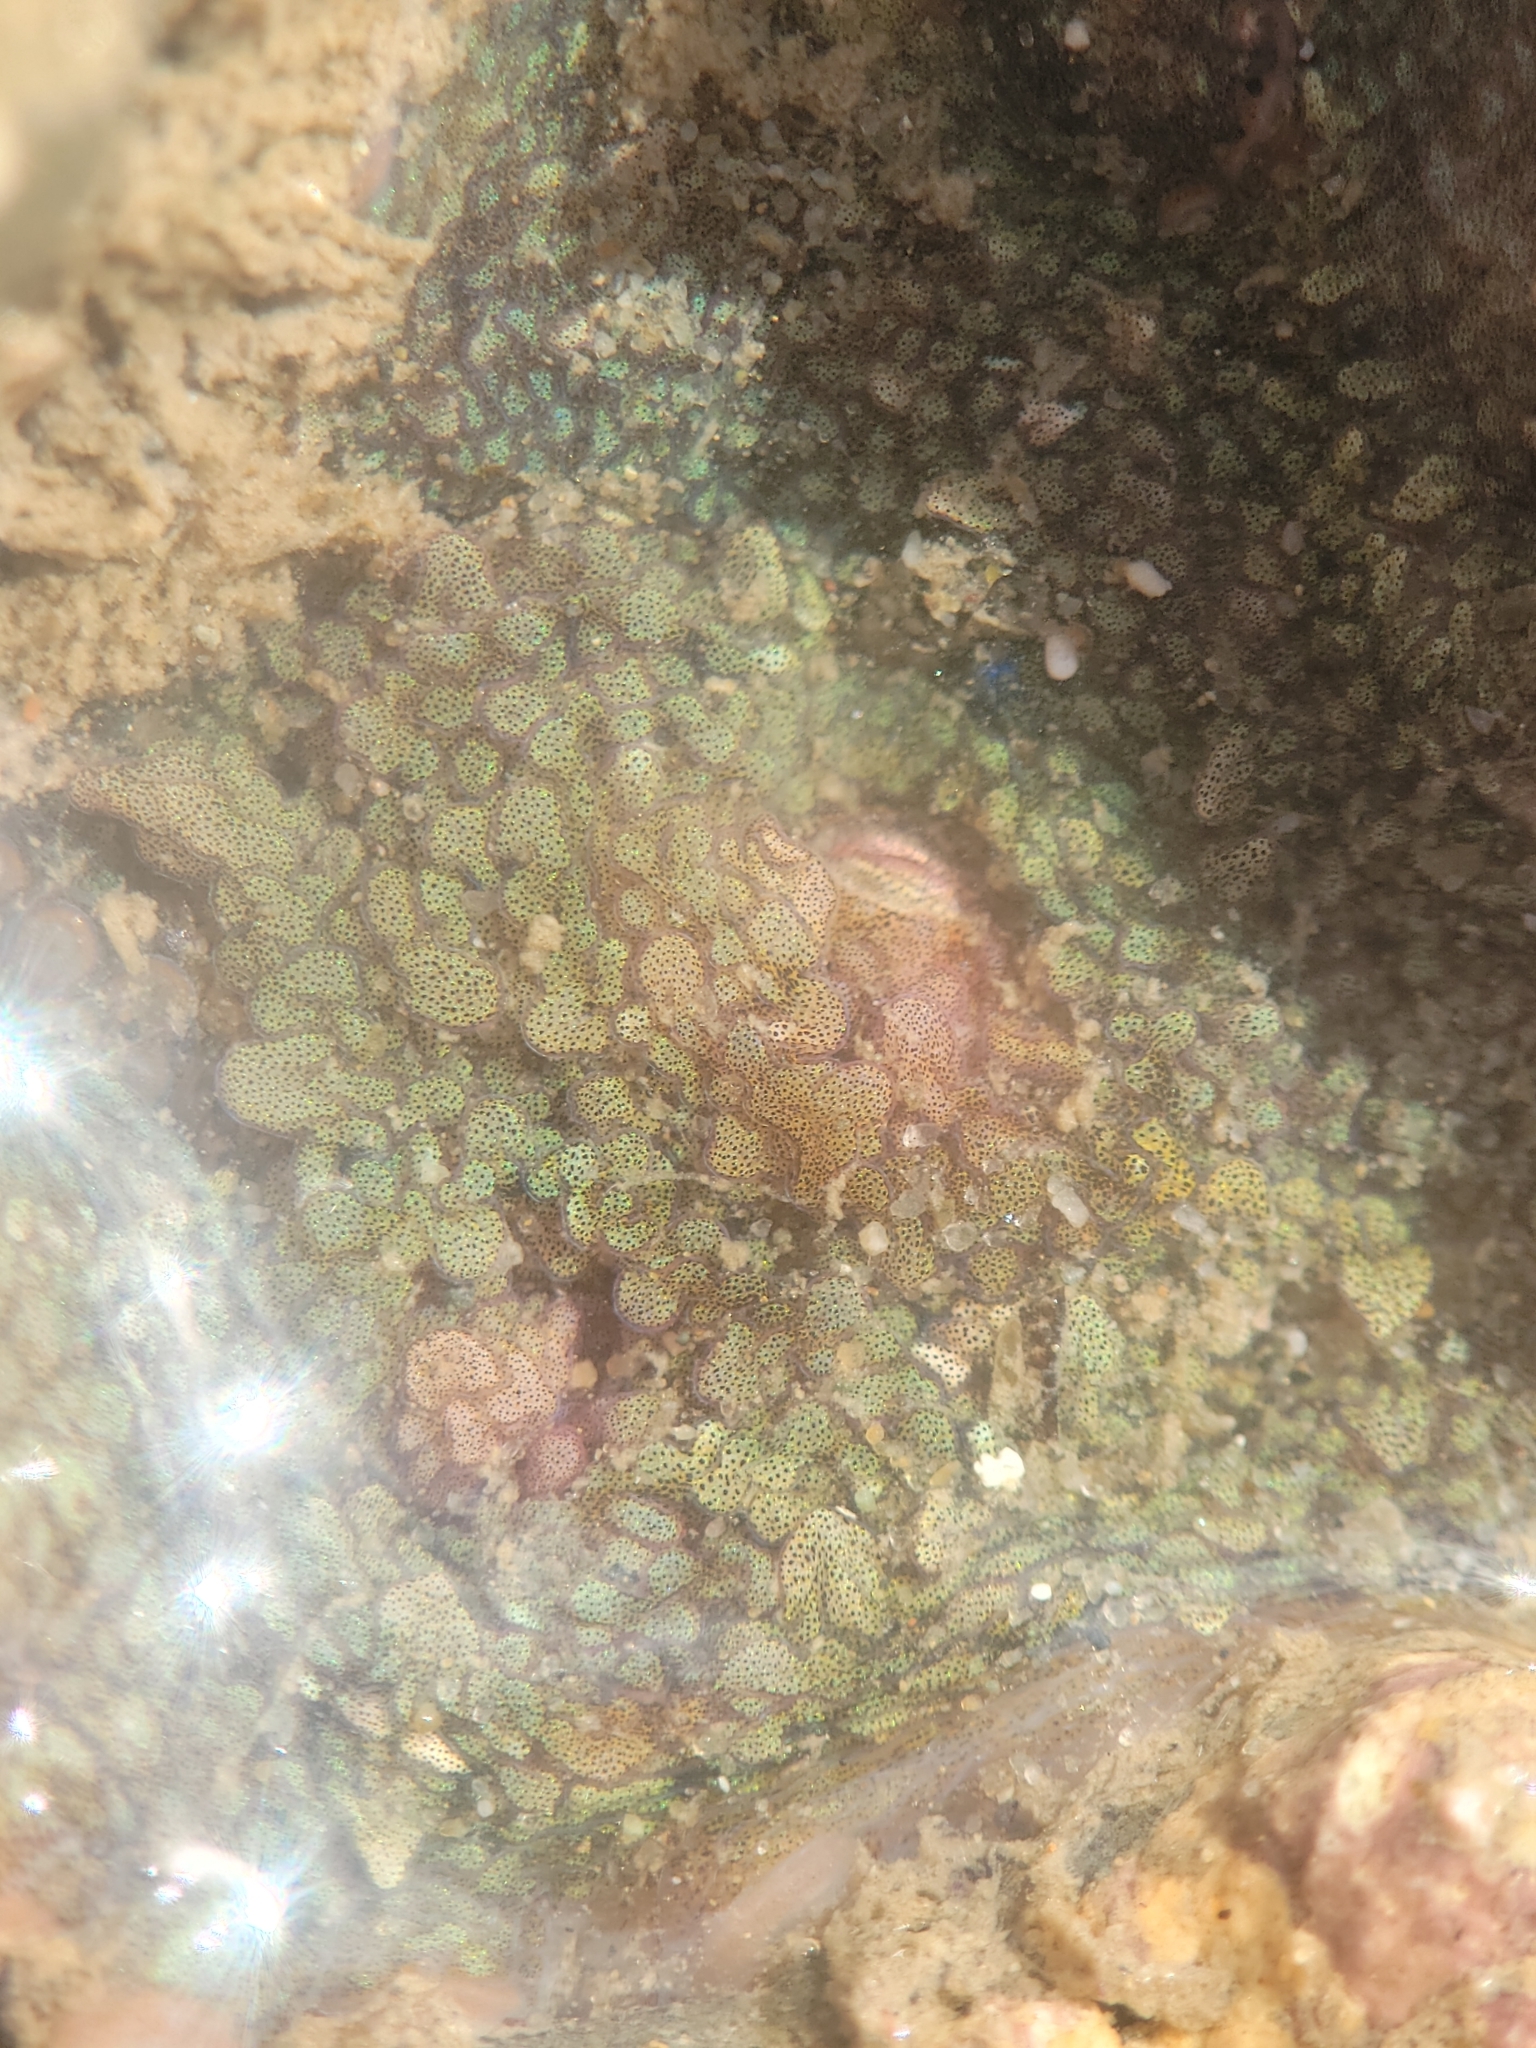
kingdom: Animalia
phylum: Mollusca
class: Cephalopoda
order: Octopoda
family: Octopodidae
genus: Octopus
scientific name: Octopus bimaculoides
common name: California two-spot octopus
